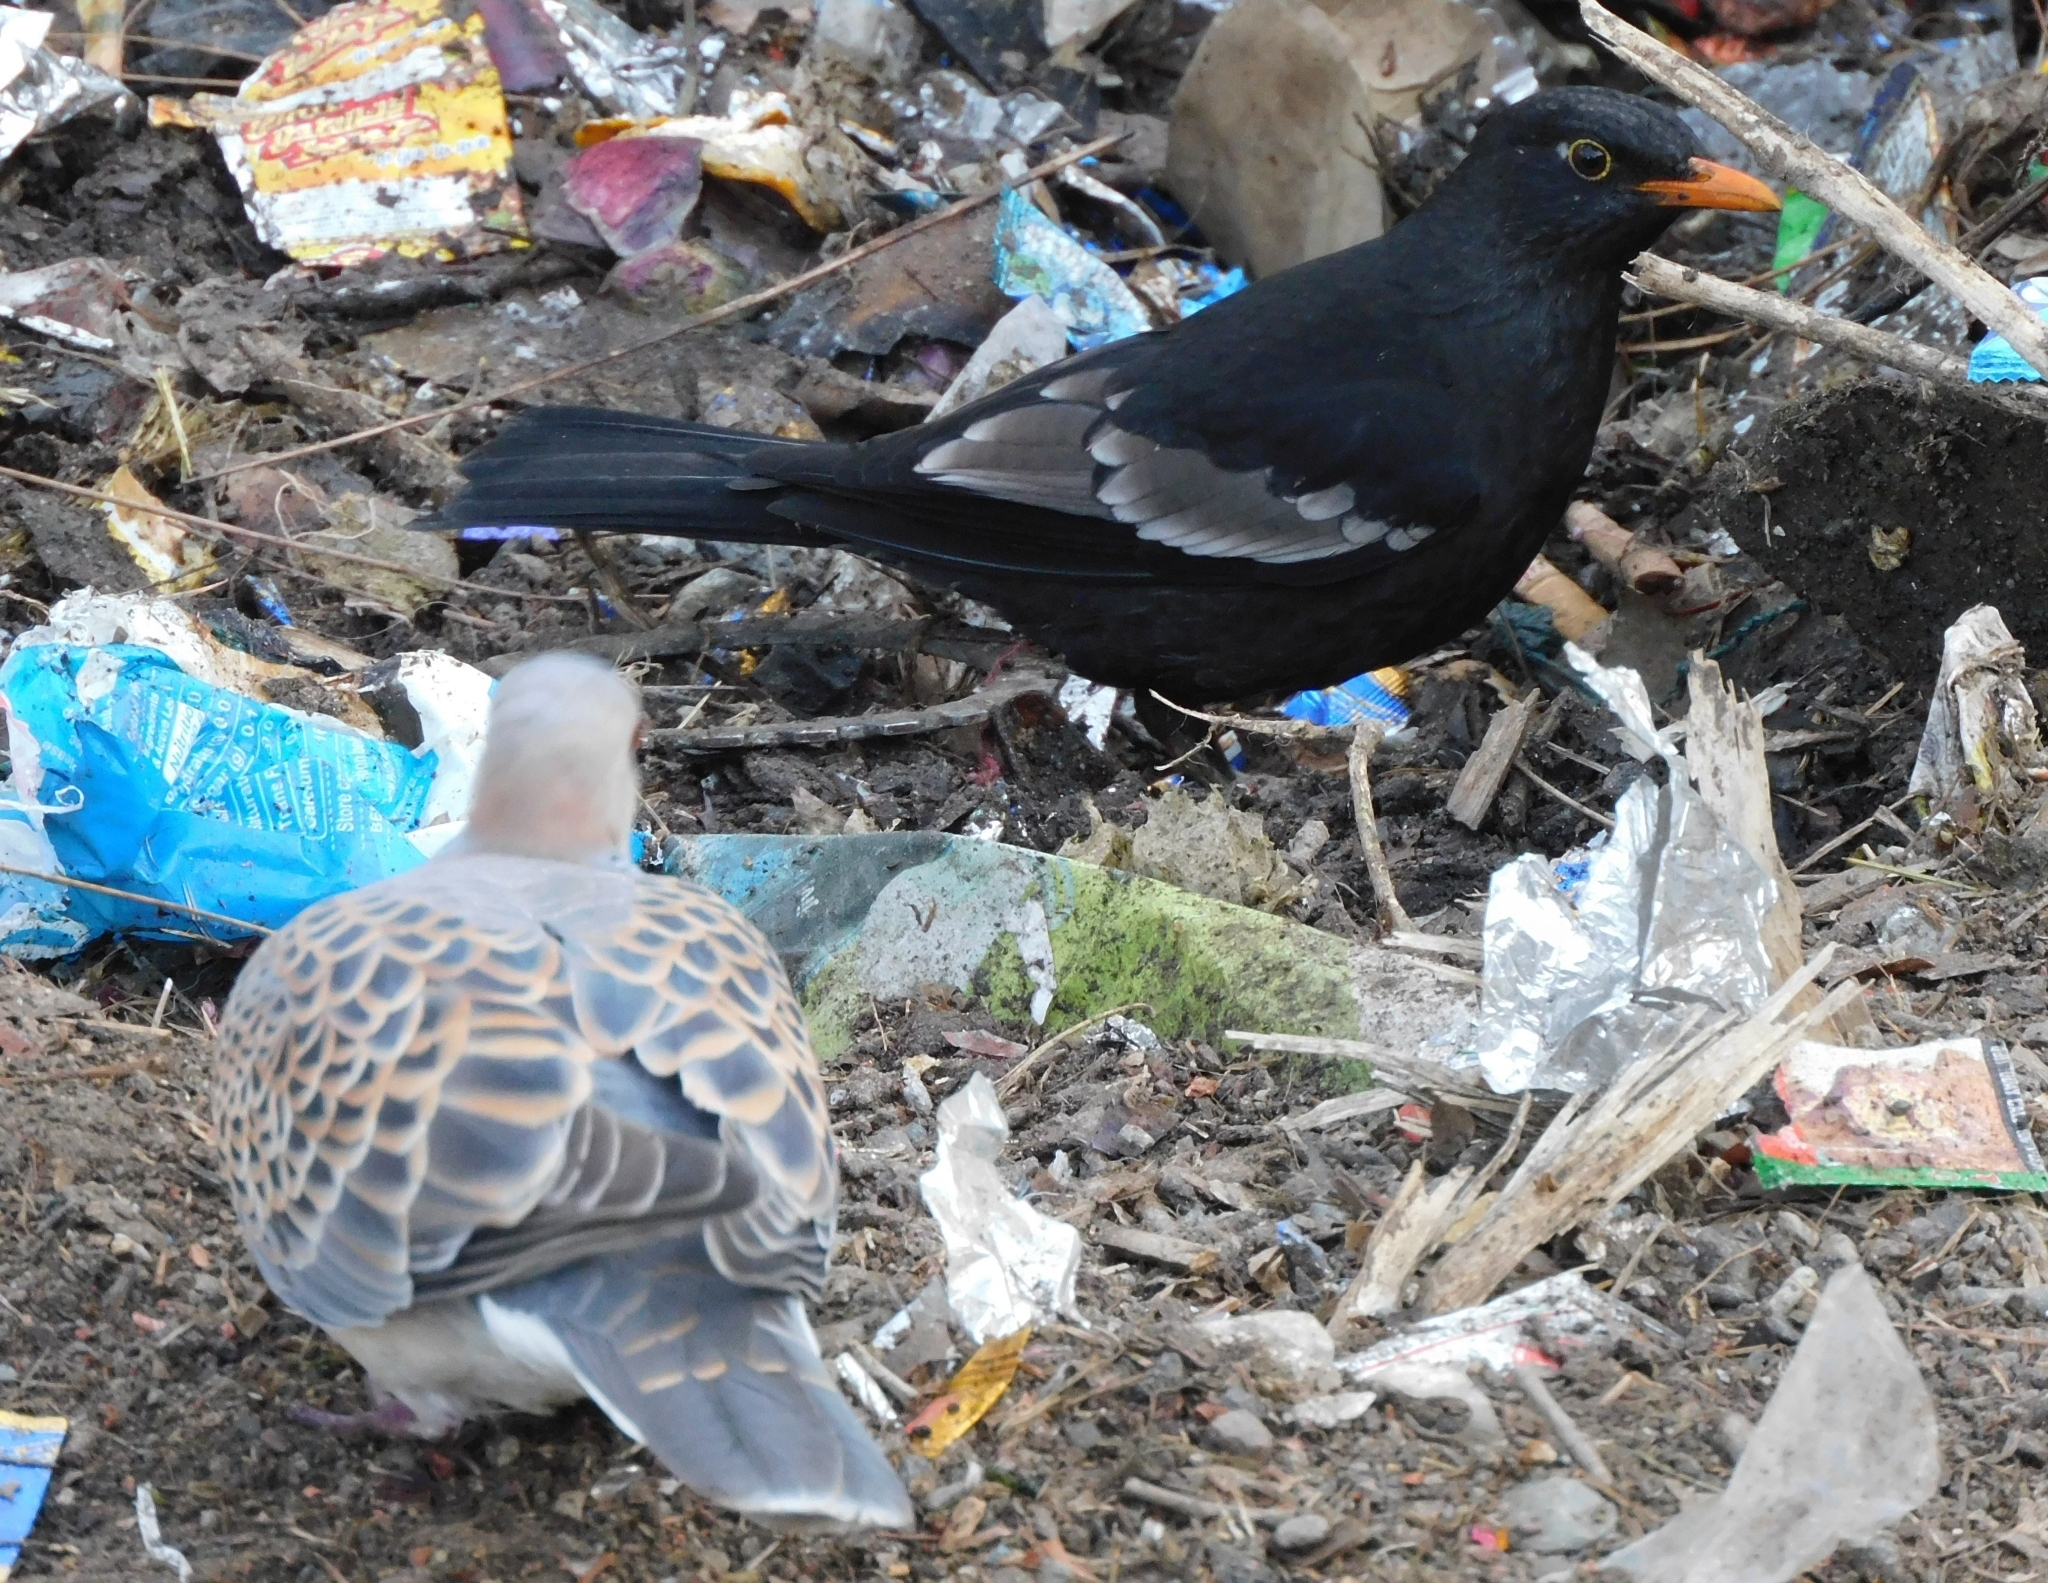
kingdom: Animalia
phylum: Chordata
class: Aves
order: Passeriformes
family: Turdidae
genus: Turdus
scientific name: Turdus boulboul
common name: Grey-winged blackbird
